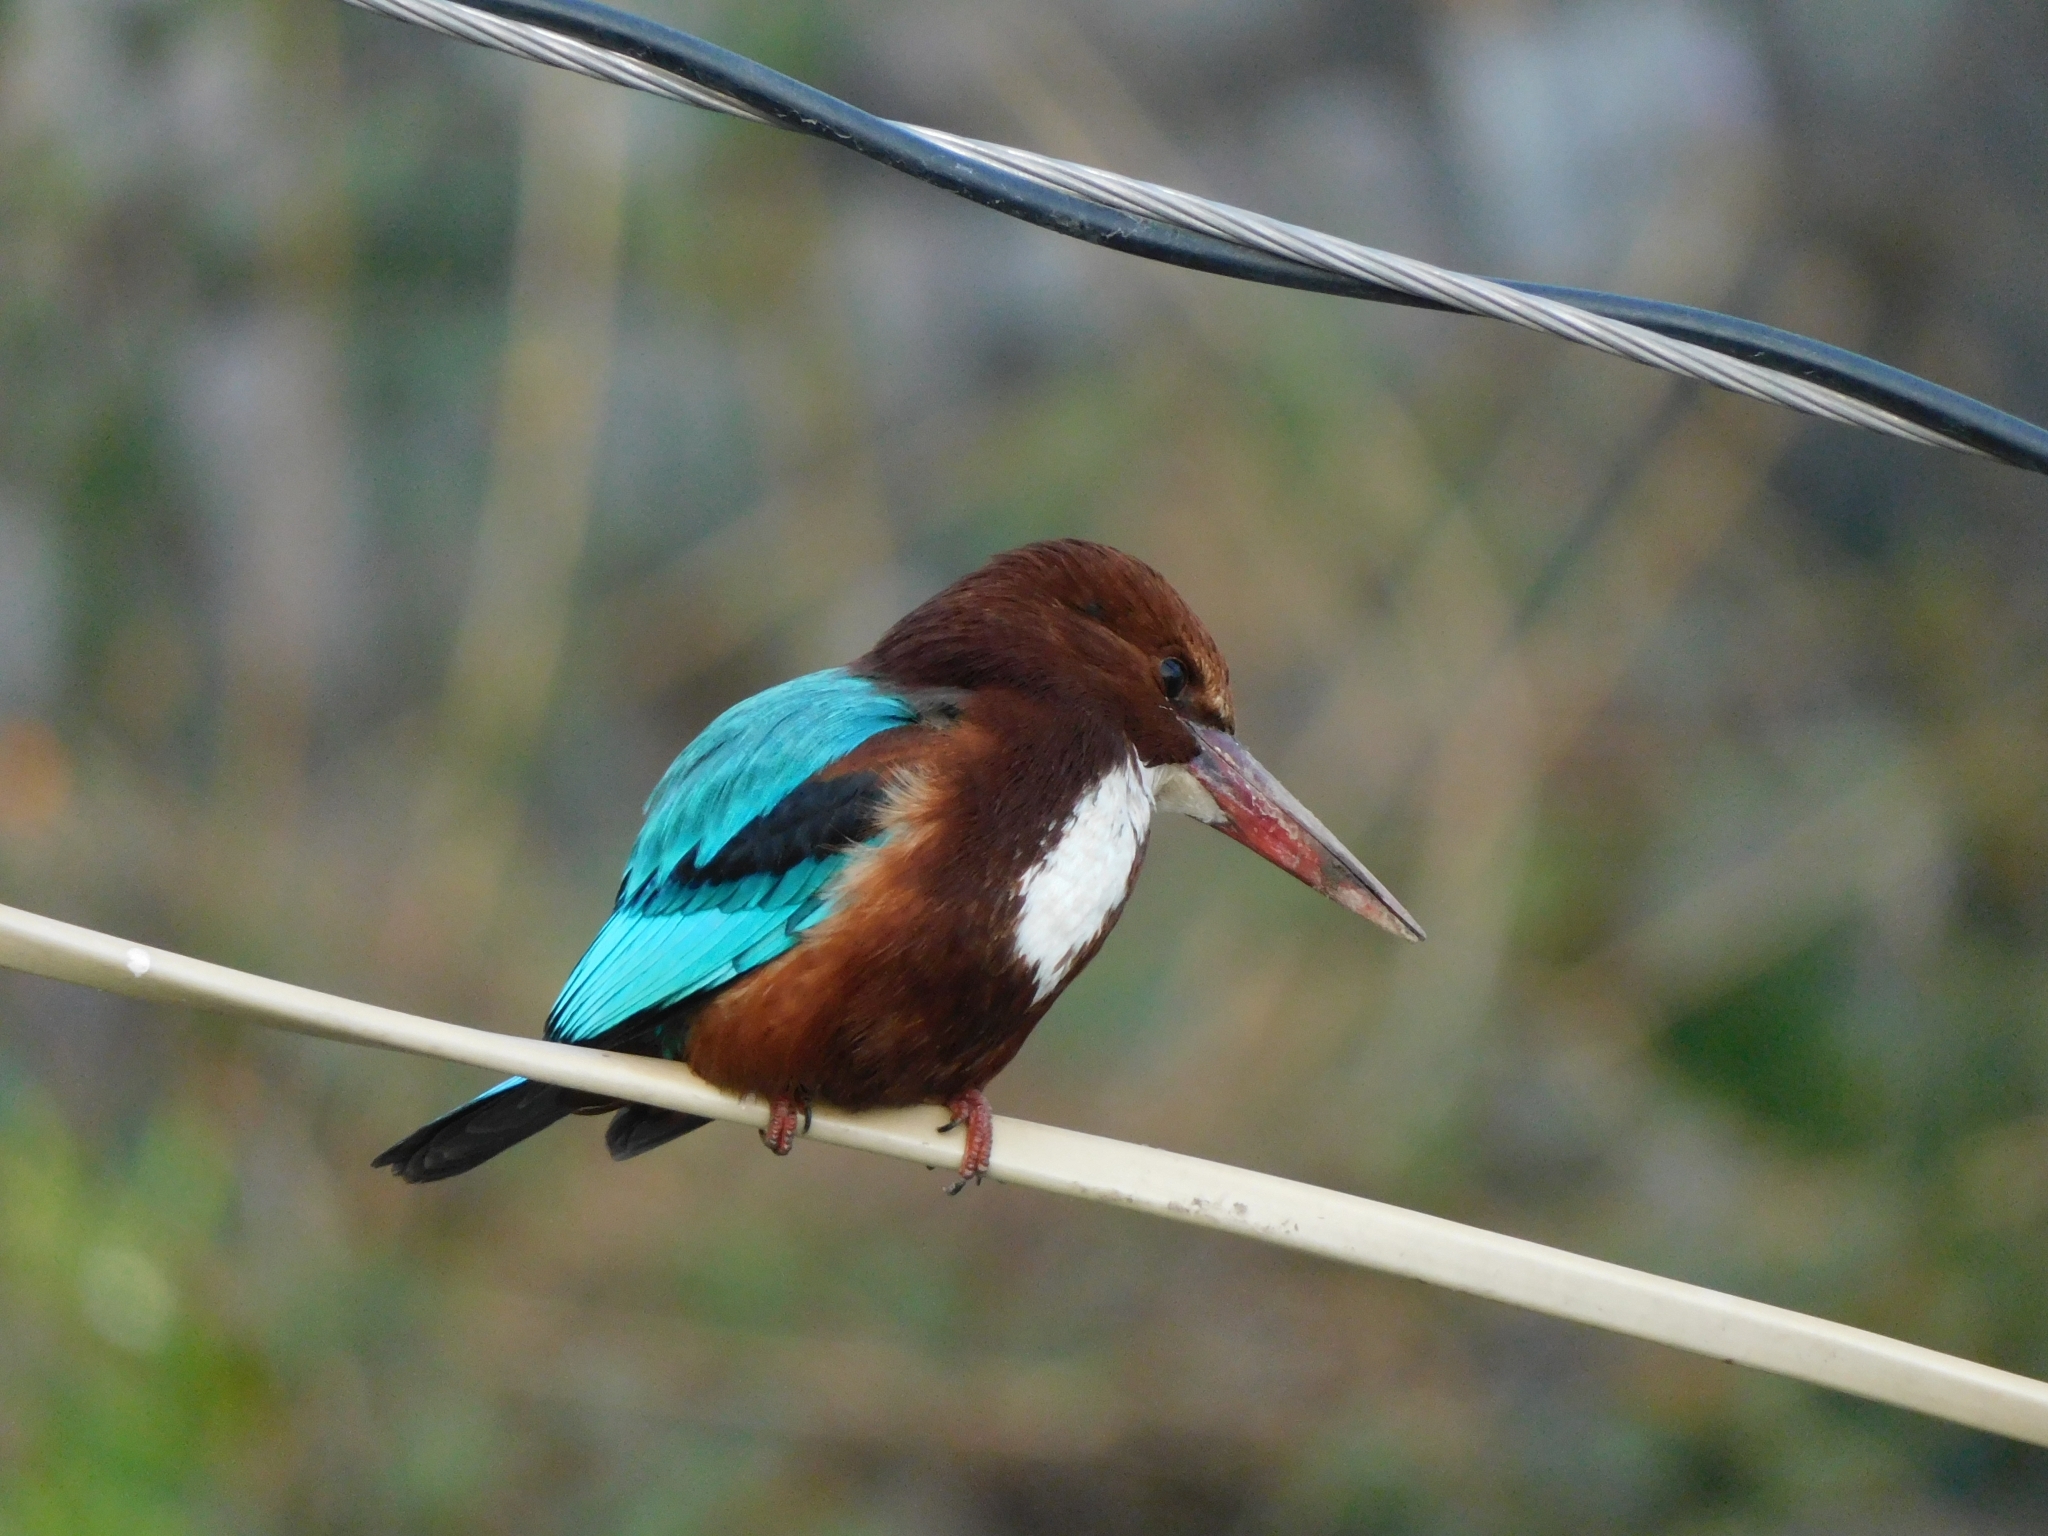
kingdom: Animalia
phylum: Chordata
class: Aves
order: Coraciiformes
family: Alcedinidae
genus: Halcyon
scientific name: Halcyon smyrnensis
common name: White-throated kingfisher
